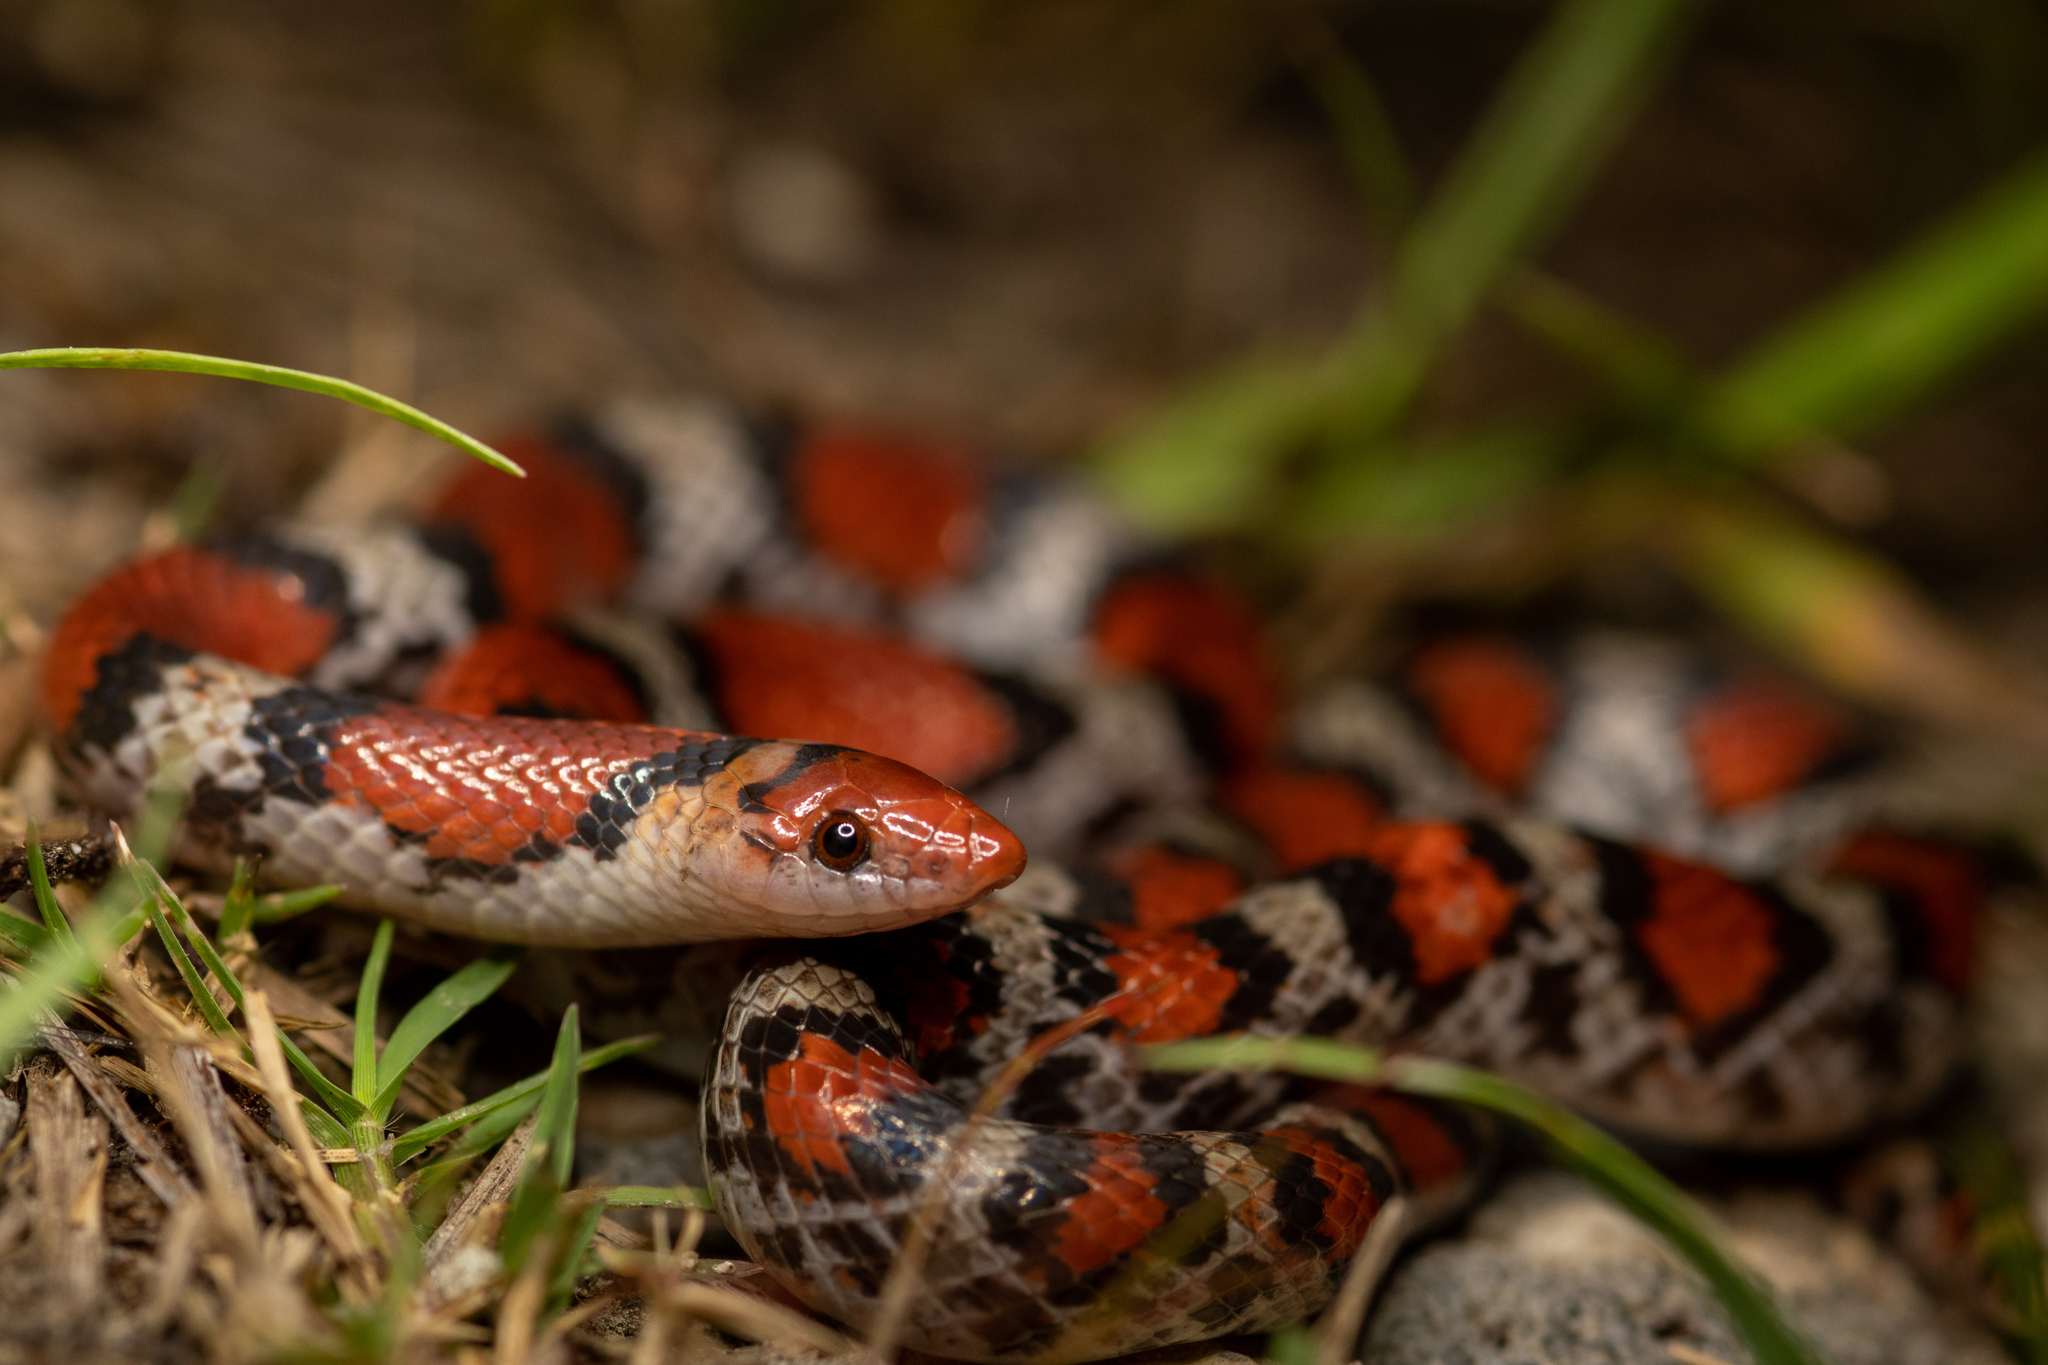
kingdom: Animalia
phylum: Chordata
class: Squamata
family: Colubridae
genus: Cemophora
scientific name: Cemophora coccinea
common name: Scarlet snake
